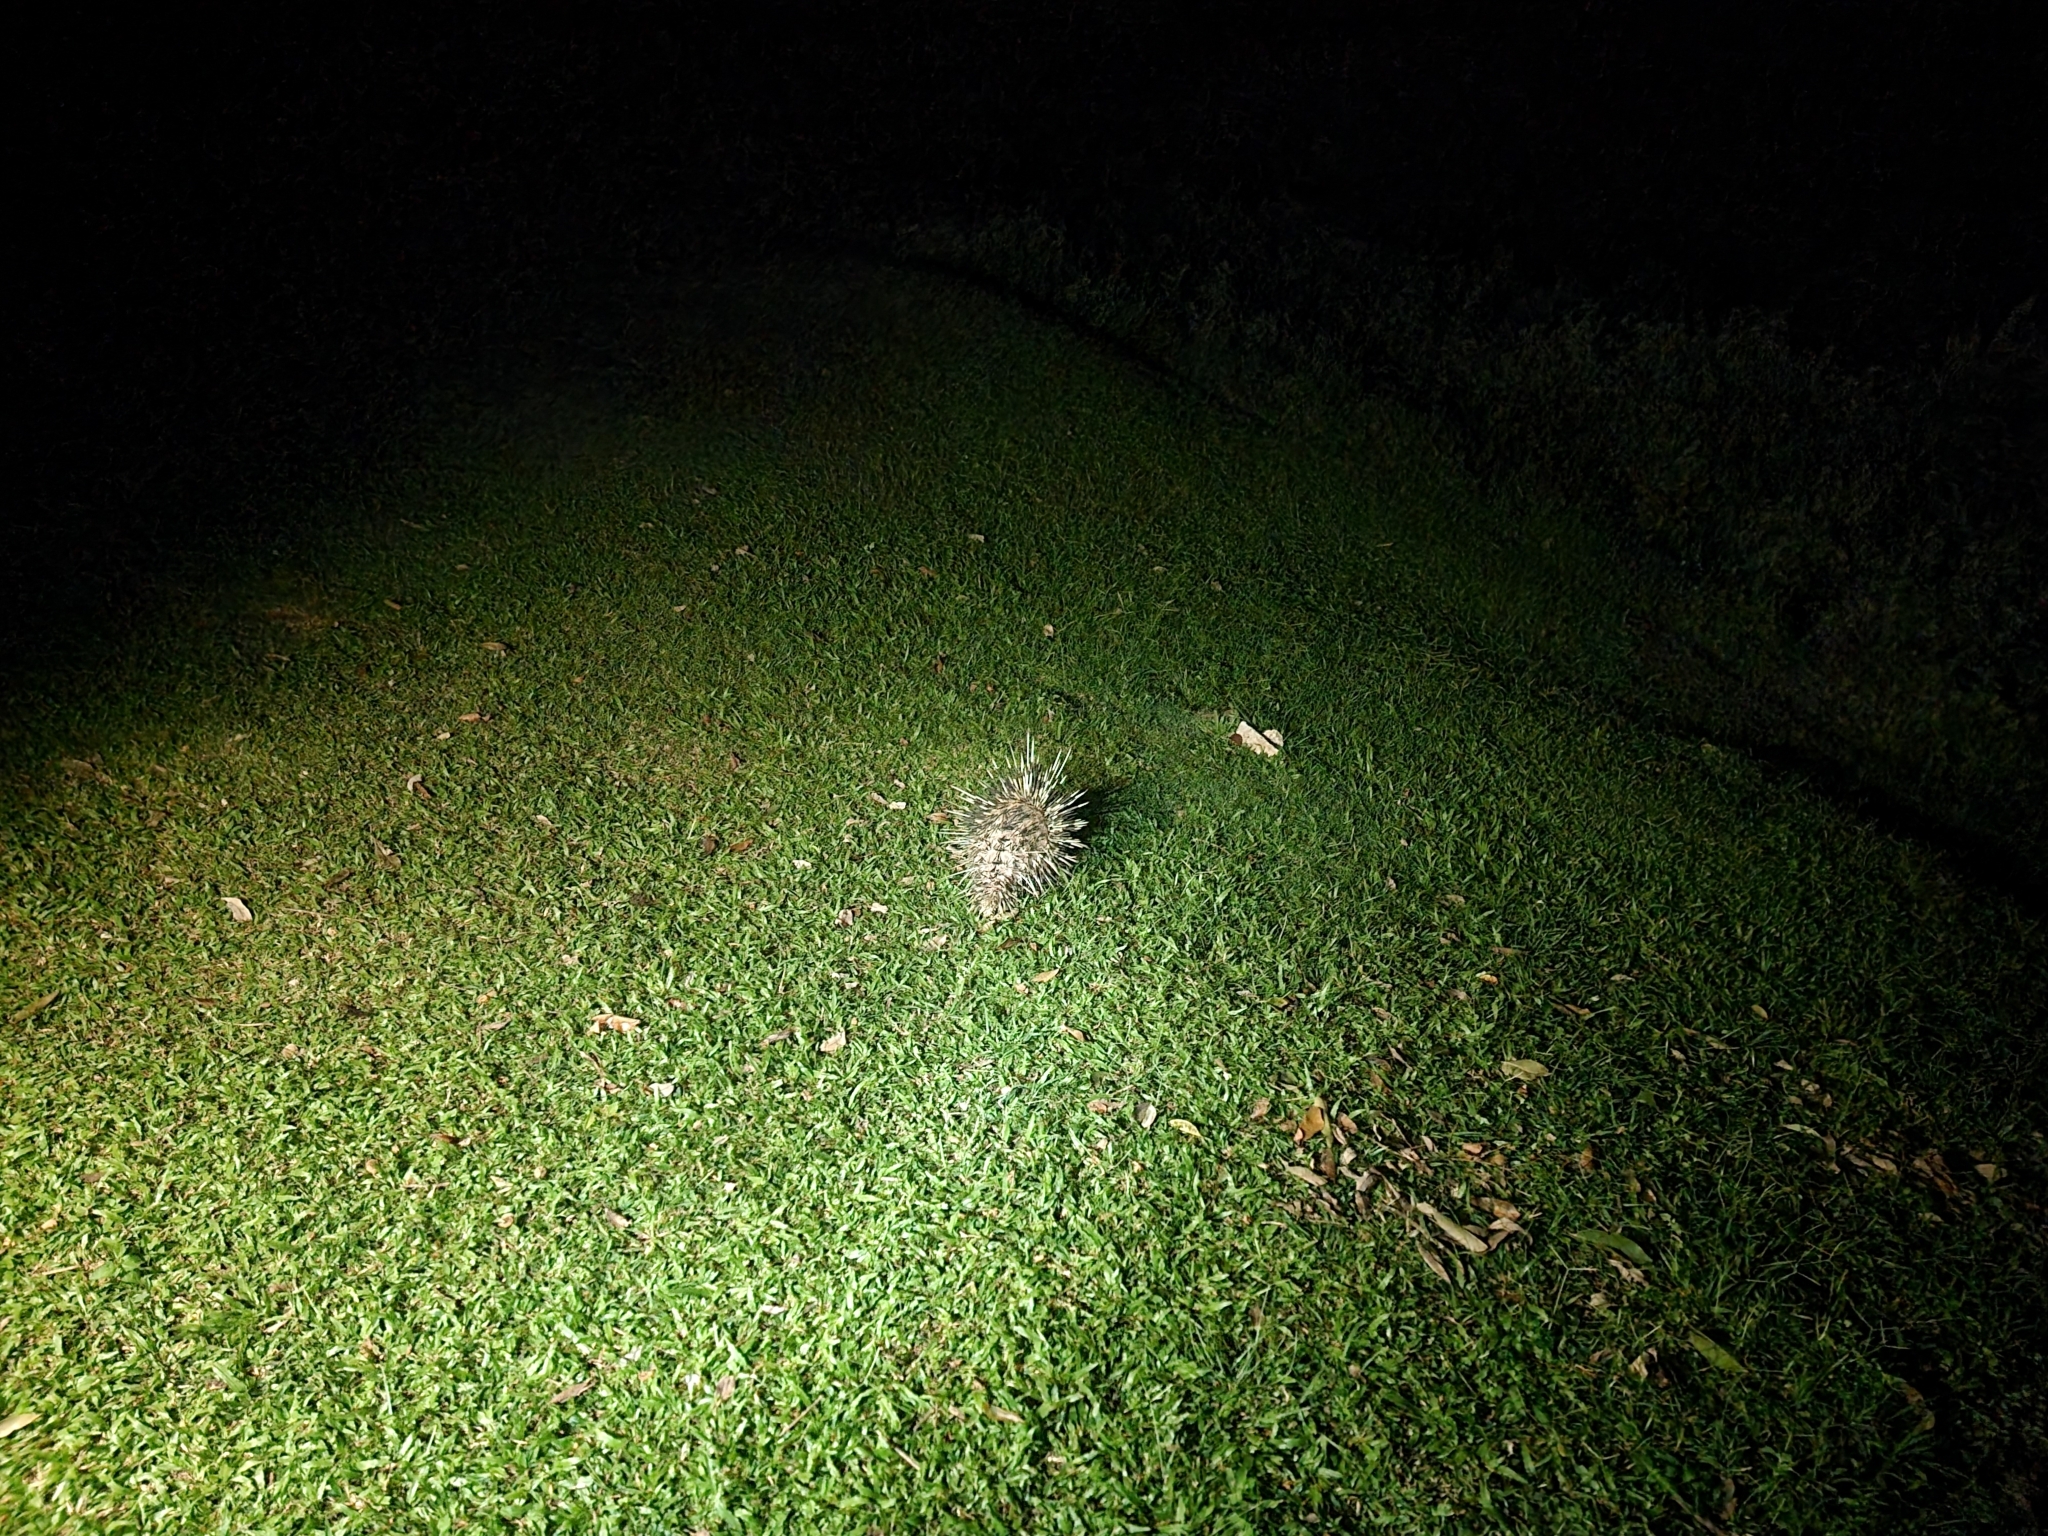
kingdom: Animalia
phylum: Chordata
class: Mammalia
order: Rodentia
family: Hystricidae
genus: Hystrix
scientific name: Hystrix brachyura
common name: Malayan porcupine
